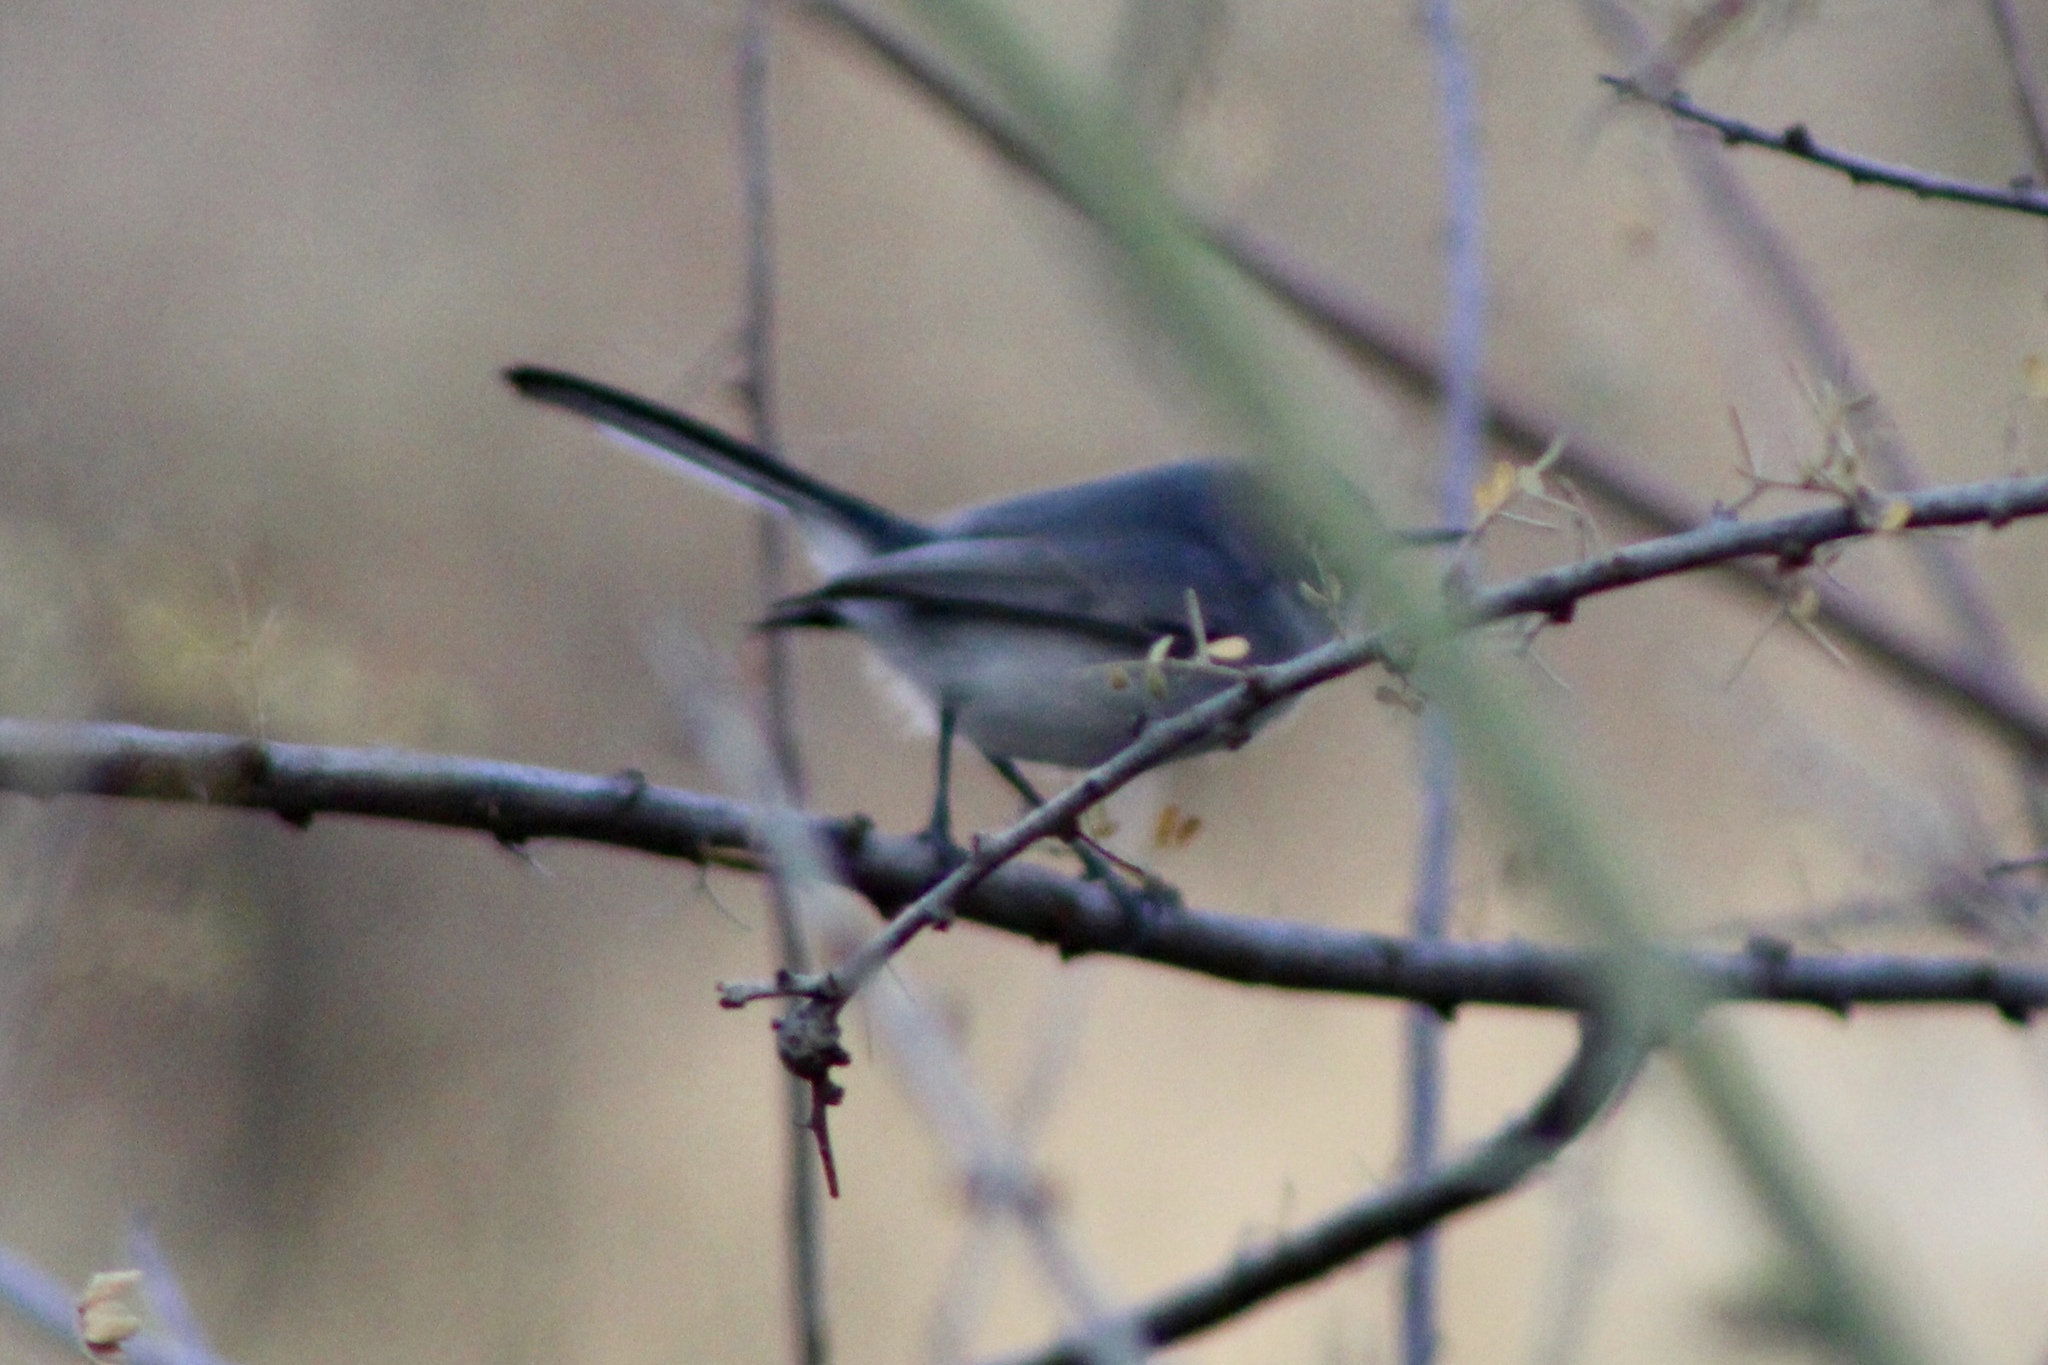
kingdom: Animalia
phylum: Chordata
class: Aves
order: Passeriformes
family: Polioptilidae
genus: Polioptila
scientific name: Polioptila caerulea
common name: Blue-gray gnatcatcher
